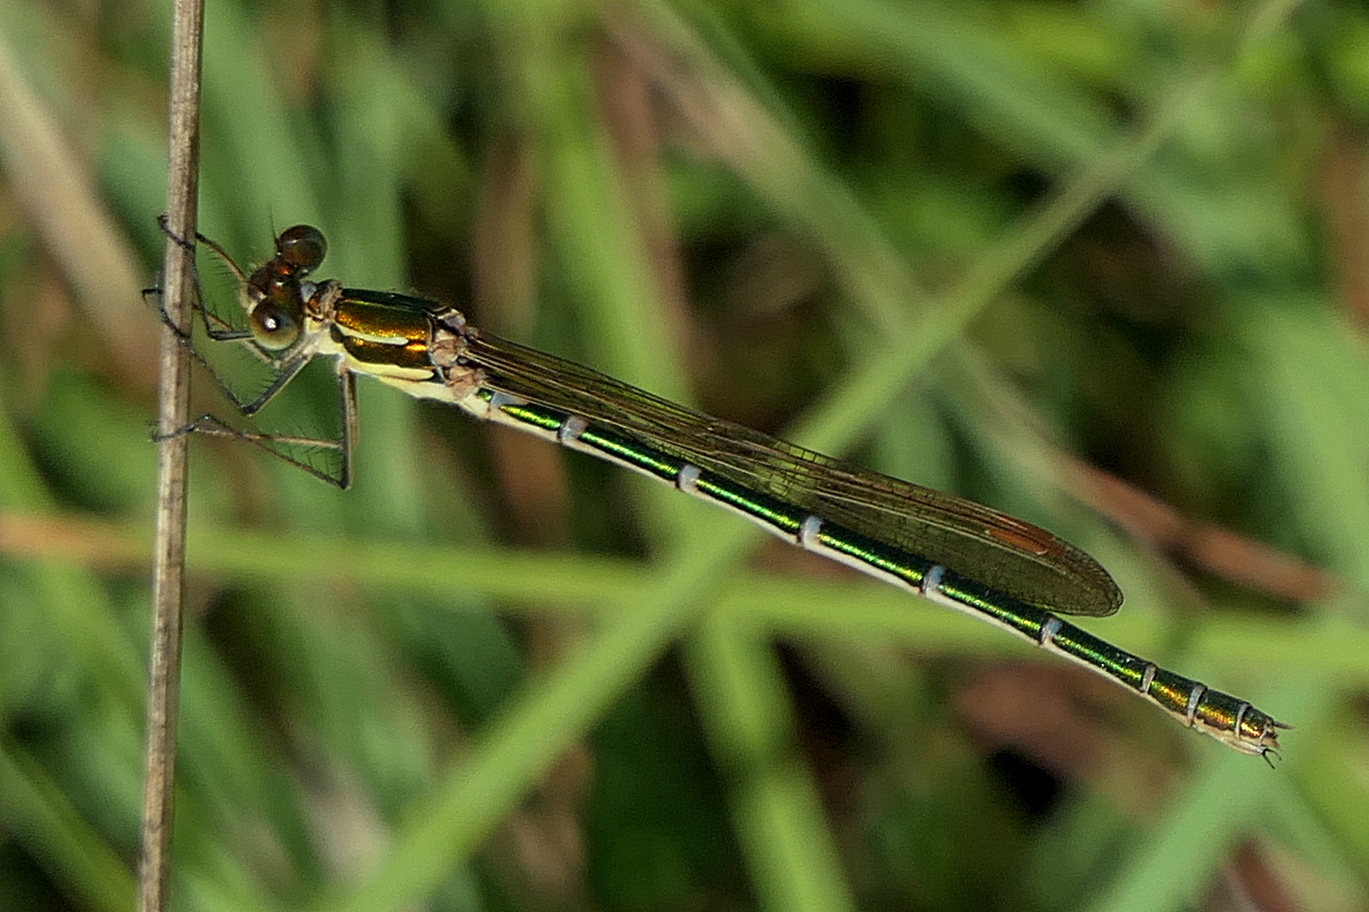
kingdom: Animalia
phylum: Arthropoda
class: Insecta
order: Odonata
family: Lestidae
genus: Austrolestes
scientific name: Austrolestes cingulatus
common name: Metallic ringtail
